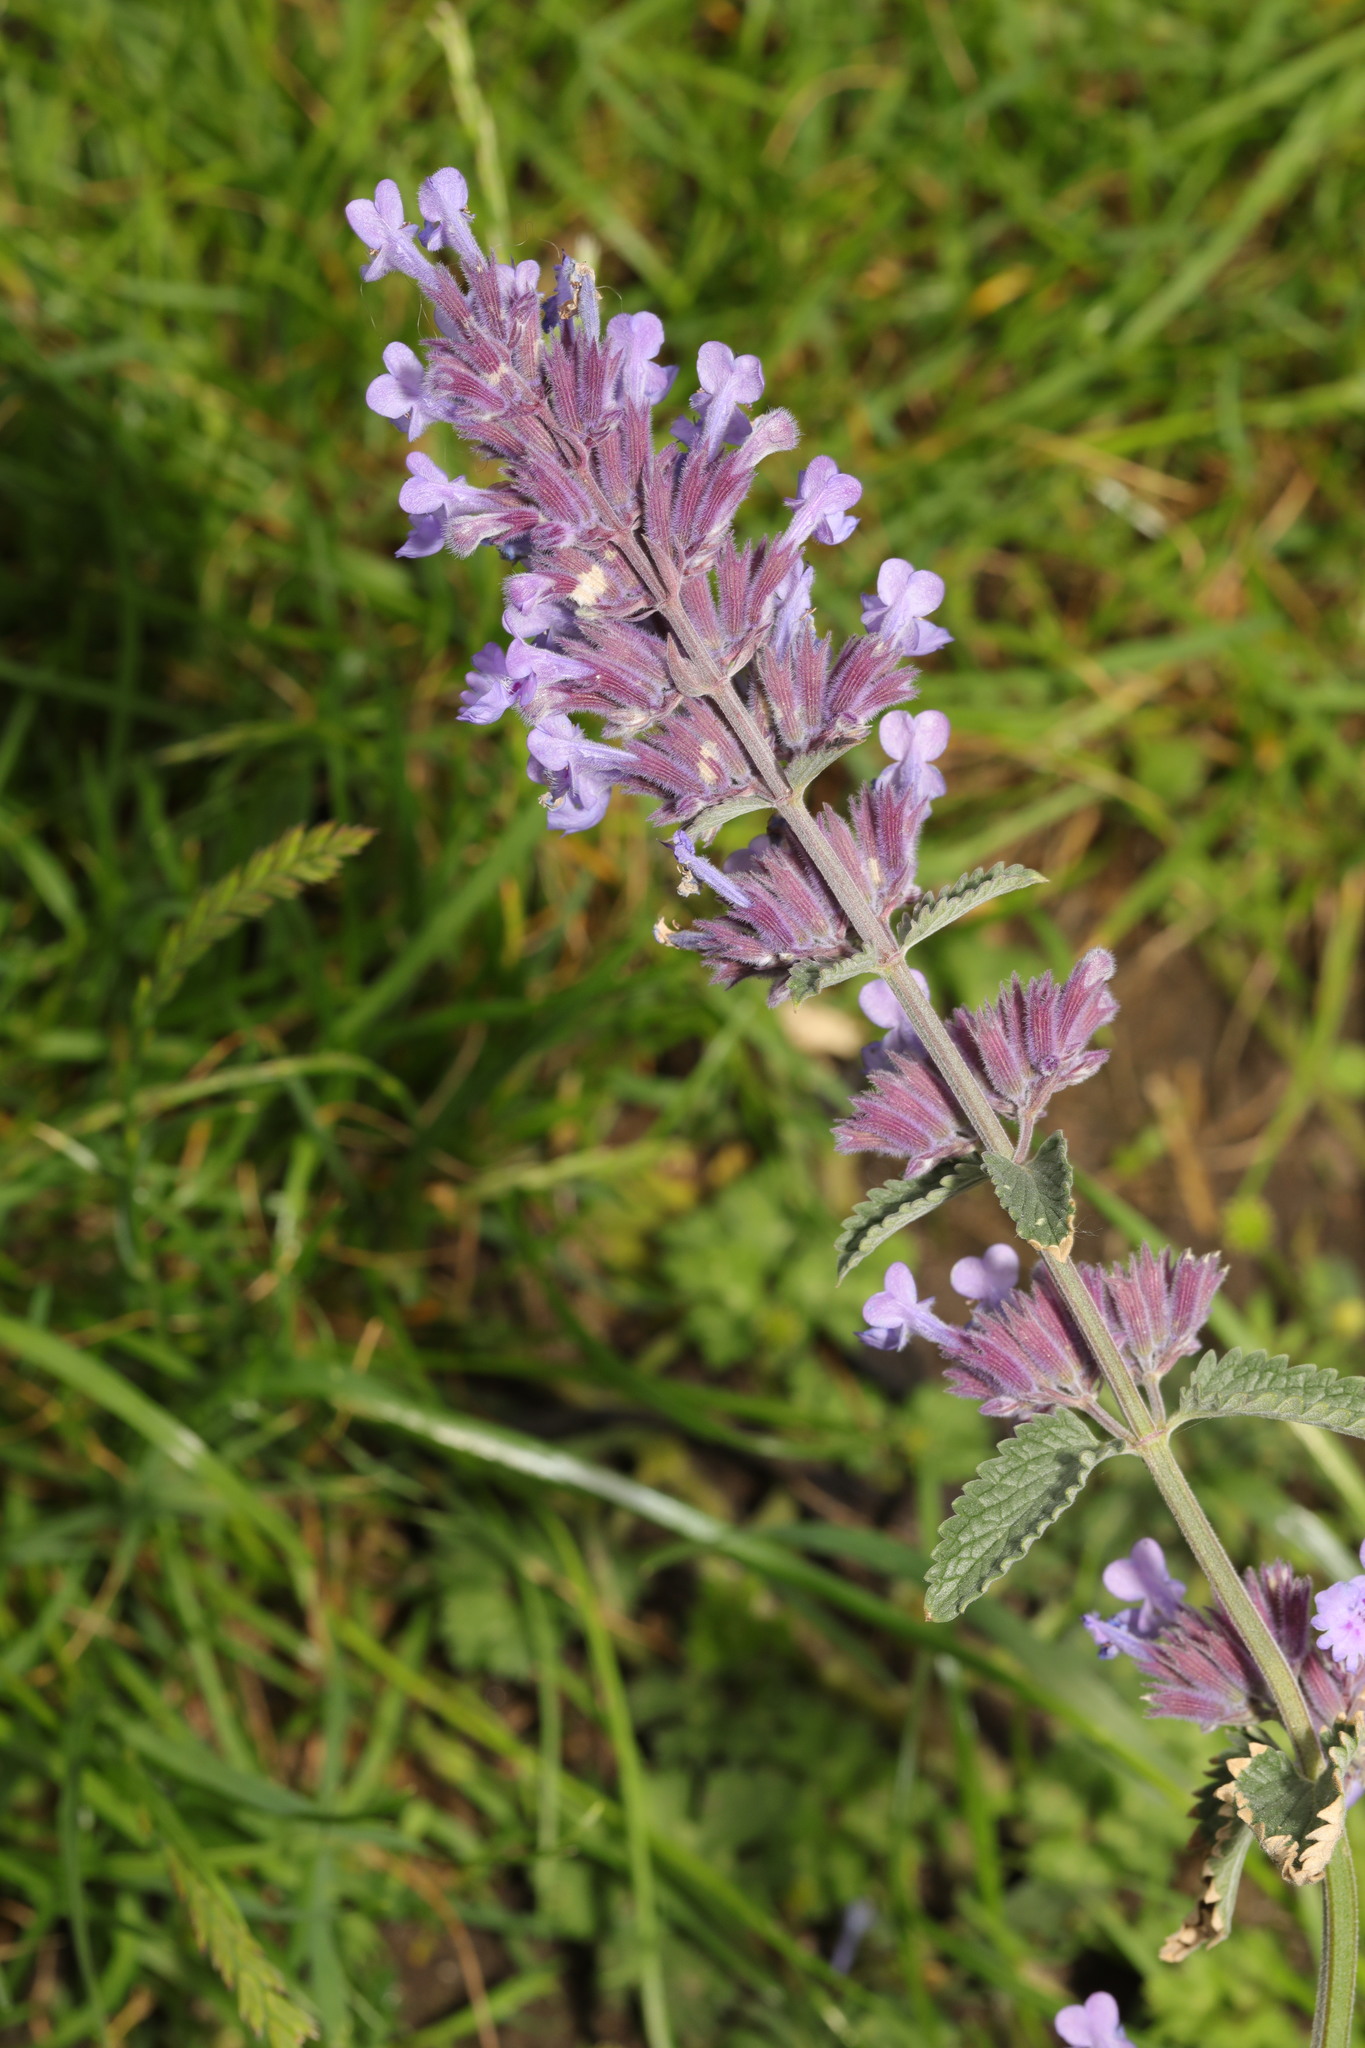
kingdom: Plantae
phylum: Tracheophyta
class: Magnoliopsida
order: Lamiales
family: Lamiaceae
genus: Nepeta
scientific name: Nepeta faassenii
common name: Catmint
